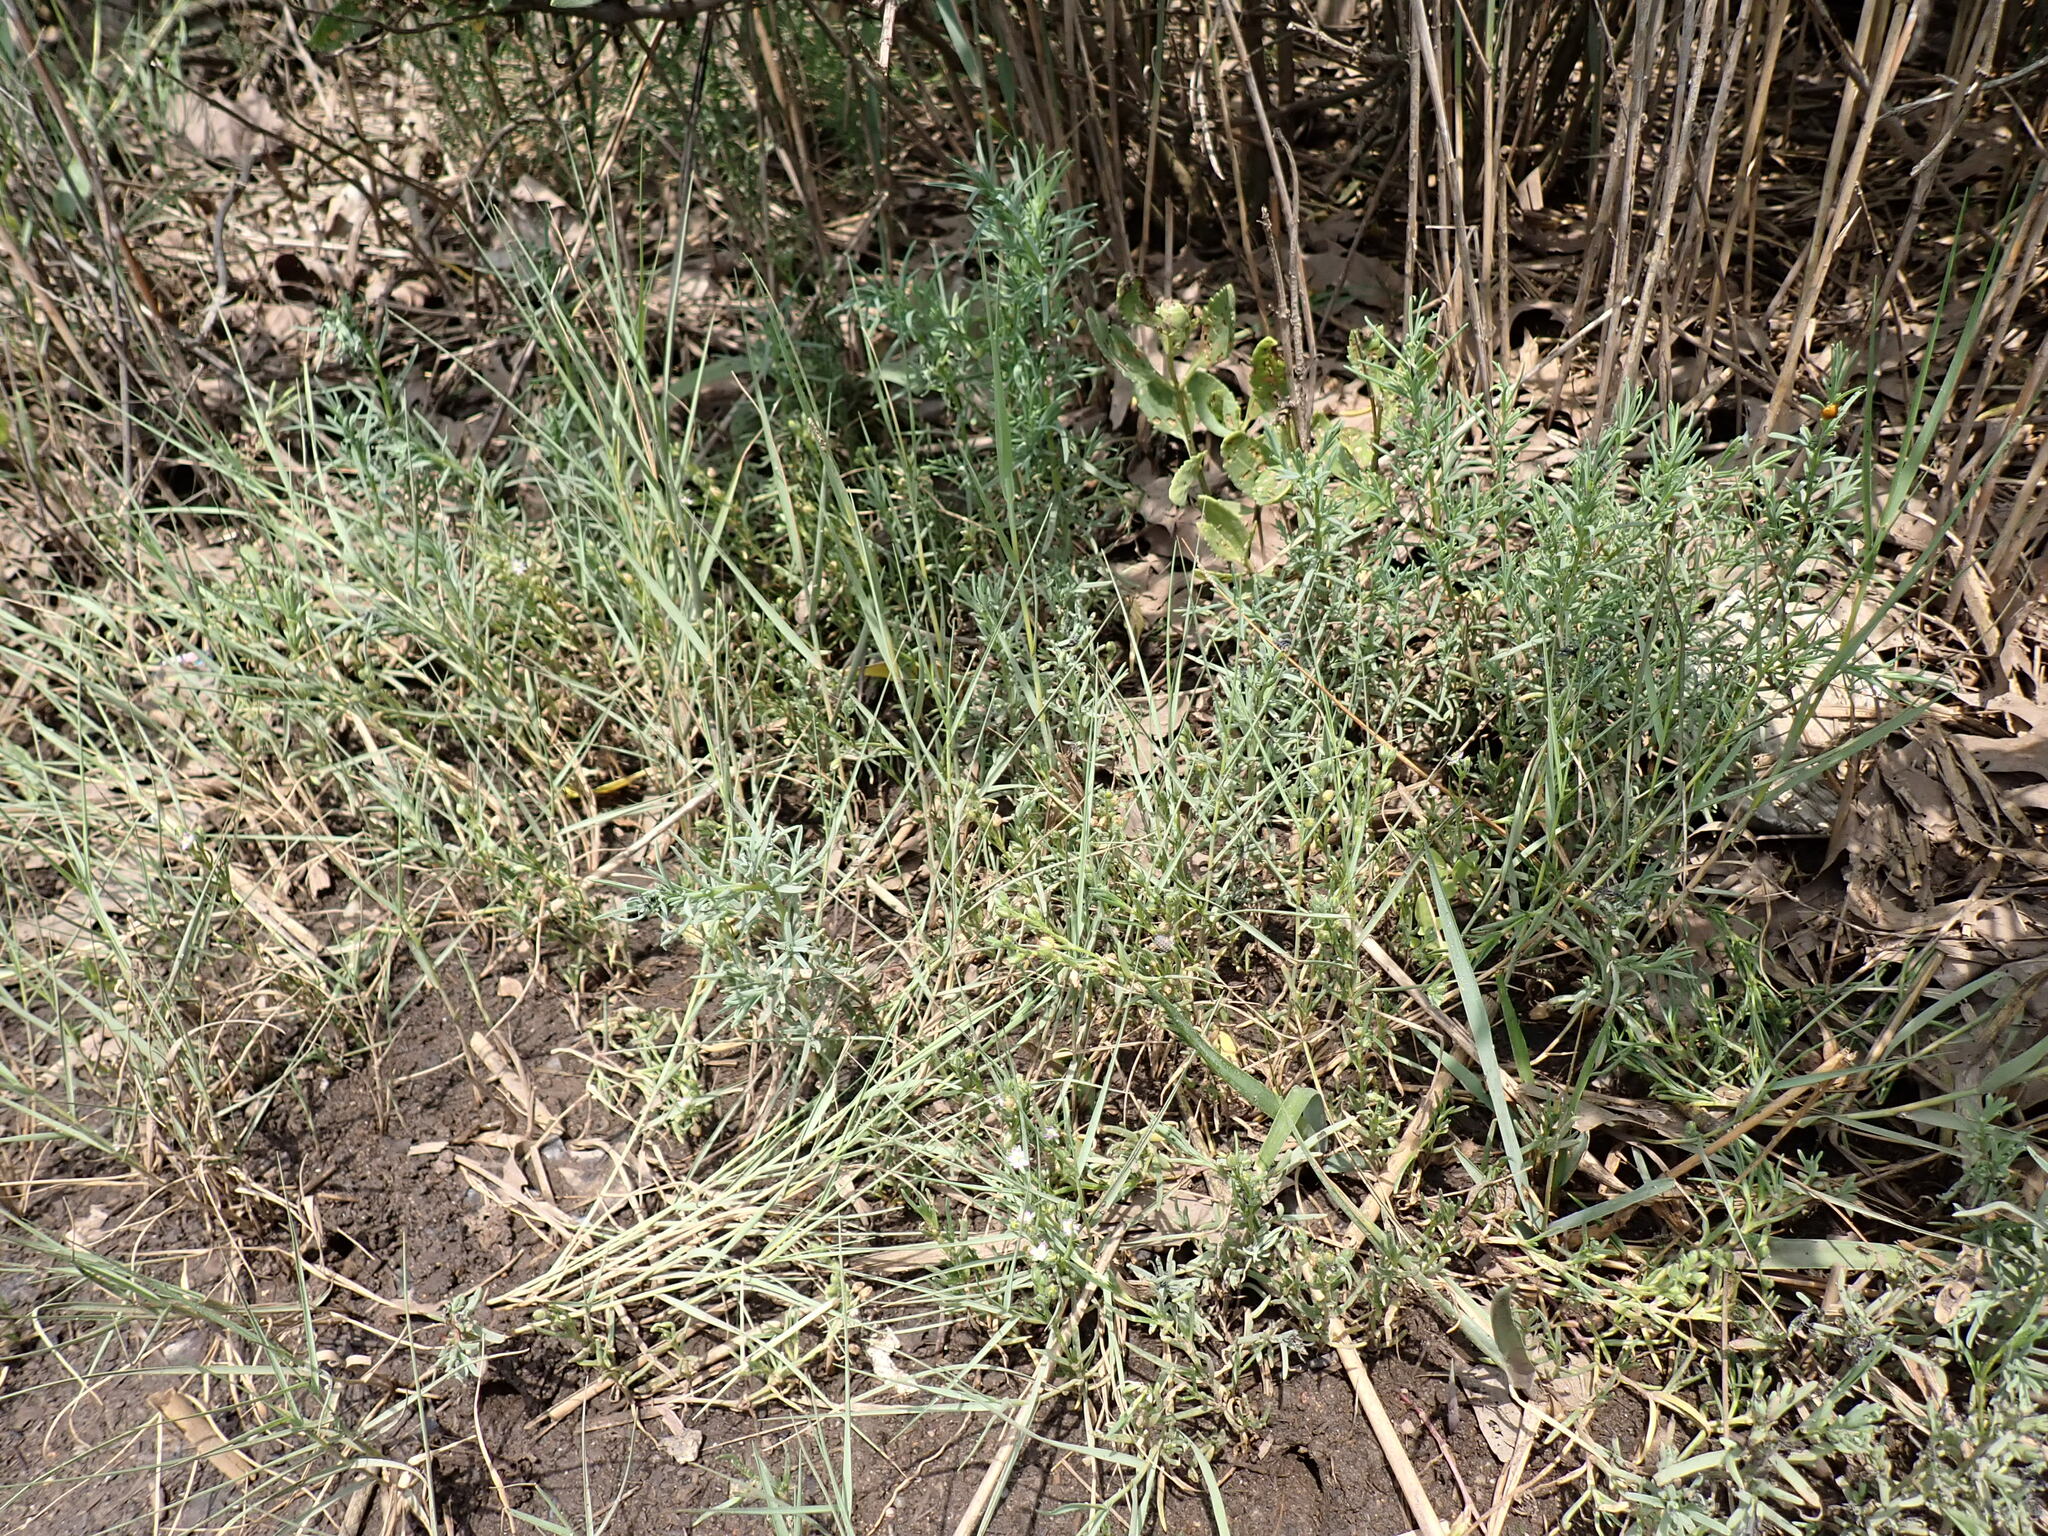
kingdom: Plantae
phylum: Tracheophyta
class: Magnoliopsida
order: Caryophyllales
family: Caryophyllaceae
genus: Spergularia
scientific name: Spergularia marina
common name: Lesser sea-spurrey
